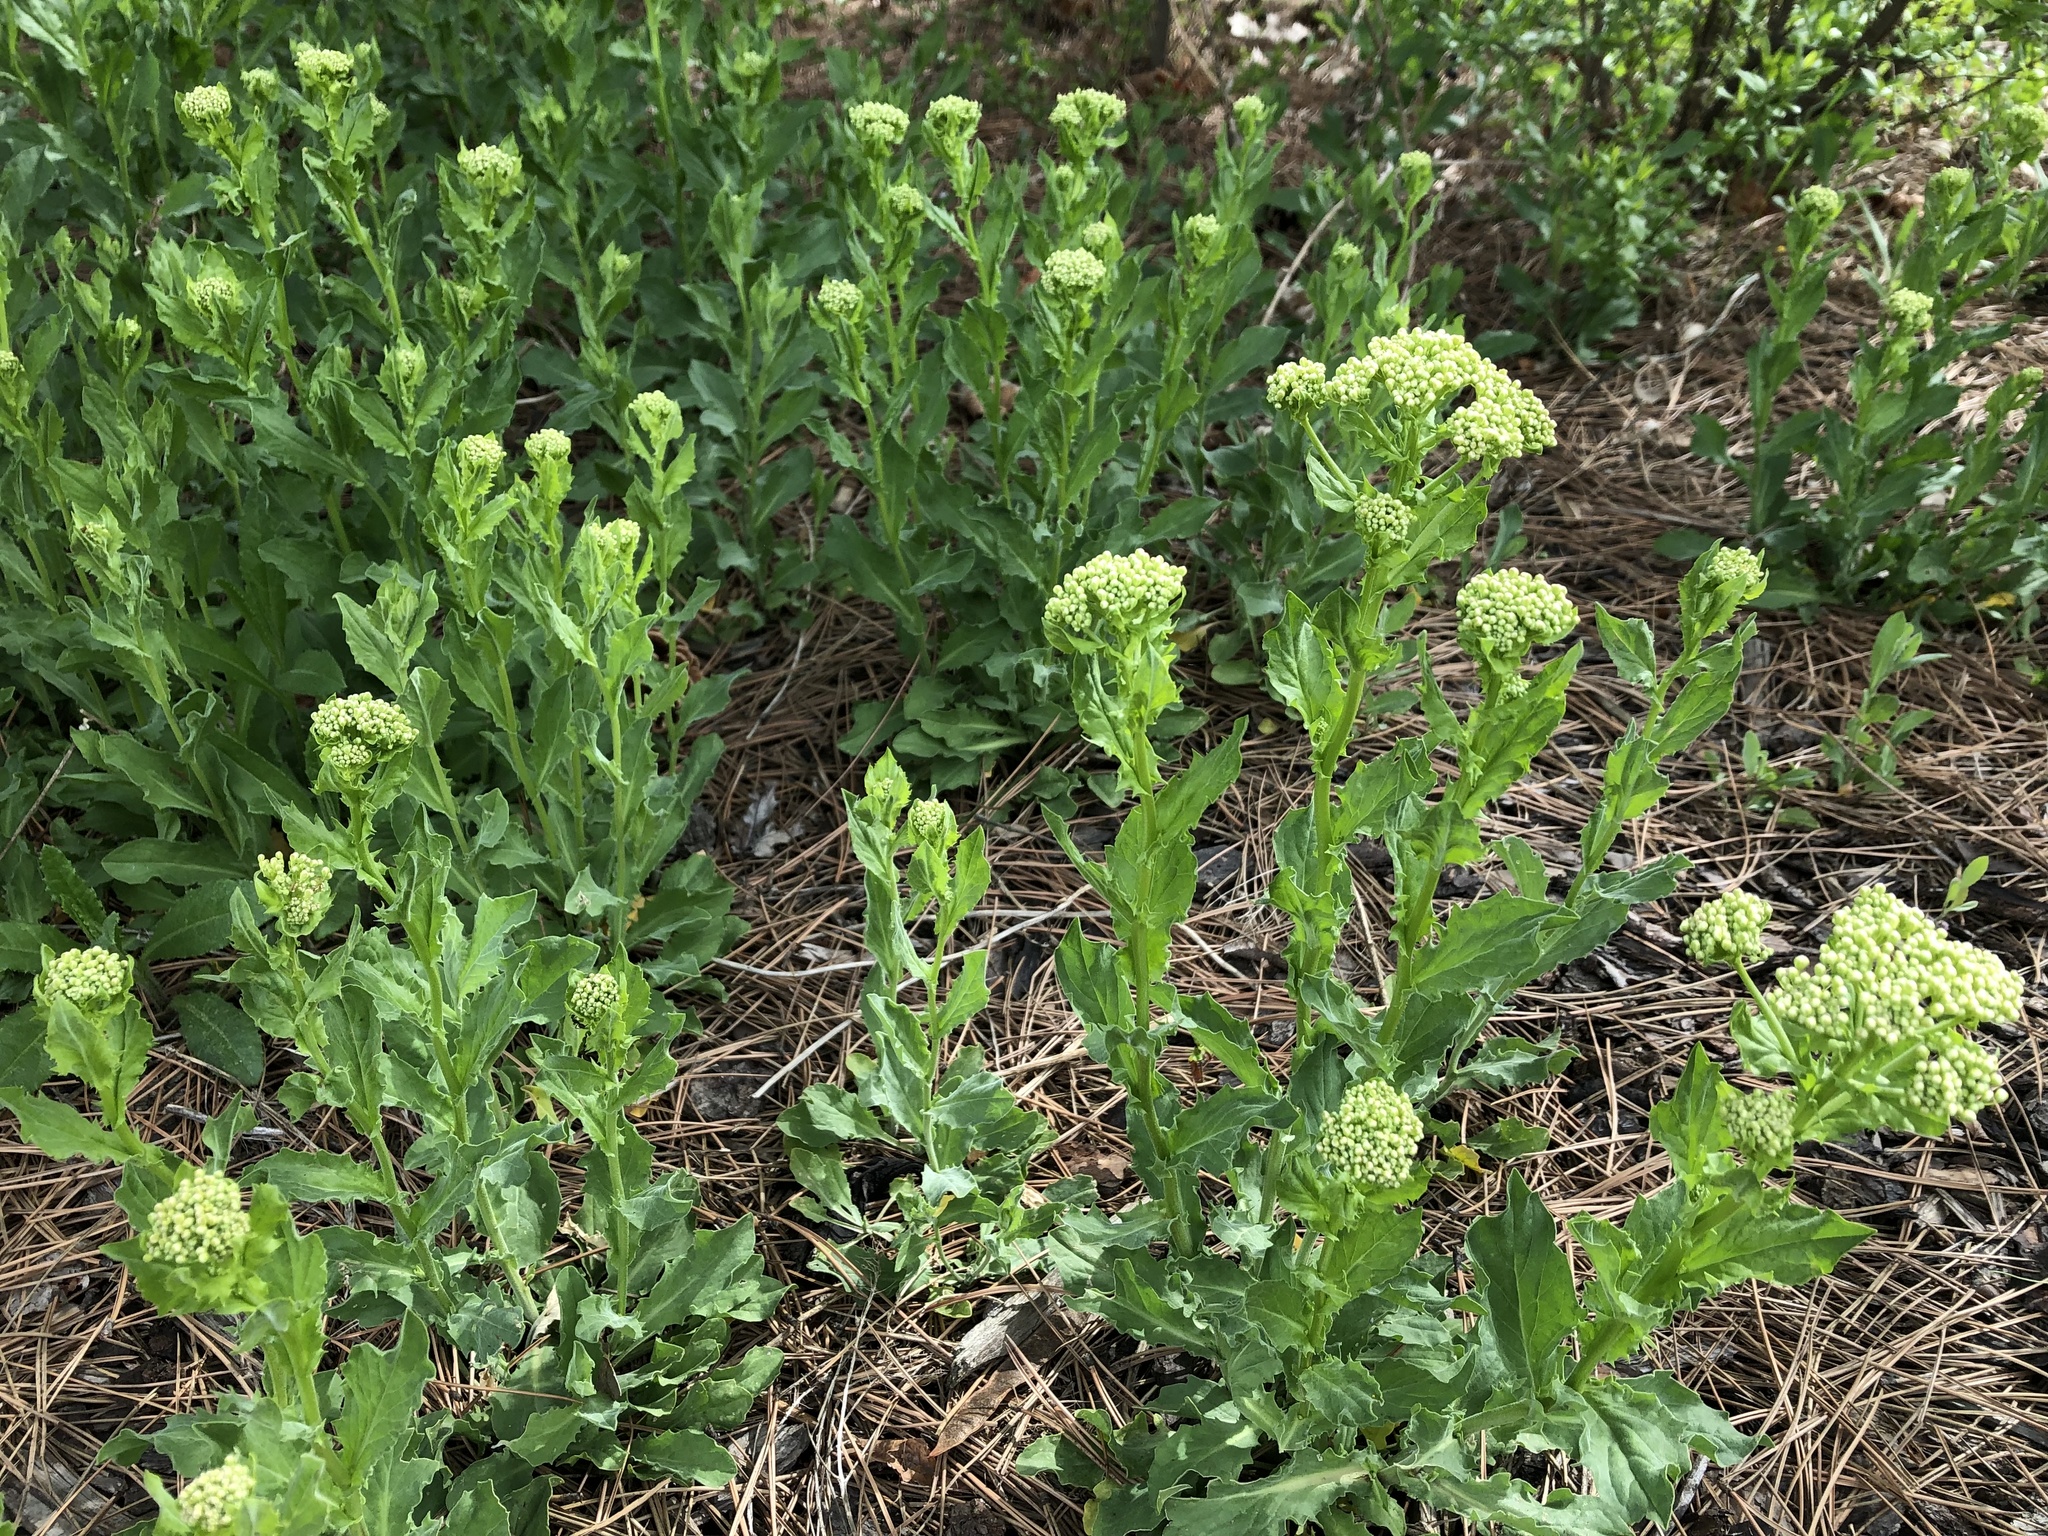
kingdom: Plantae
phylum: Tracheophyta
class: Magnoliopsida
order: Brassicales
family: Brassicaceae
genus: Lepidium
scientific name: Lepidium draba
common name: Hoary cress
